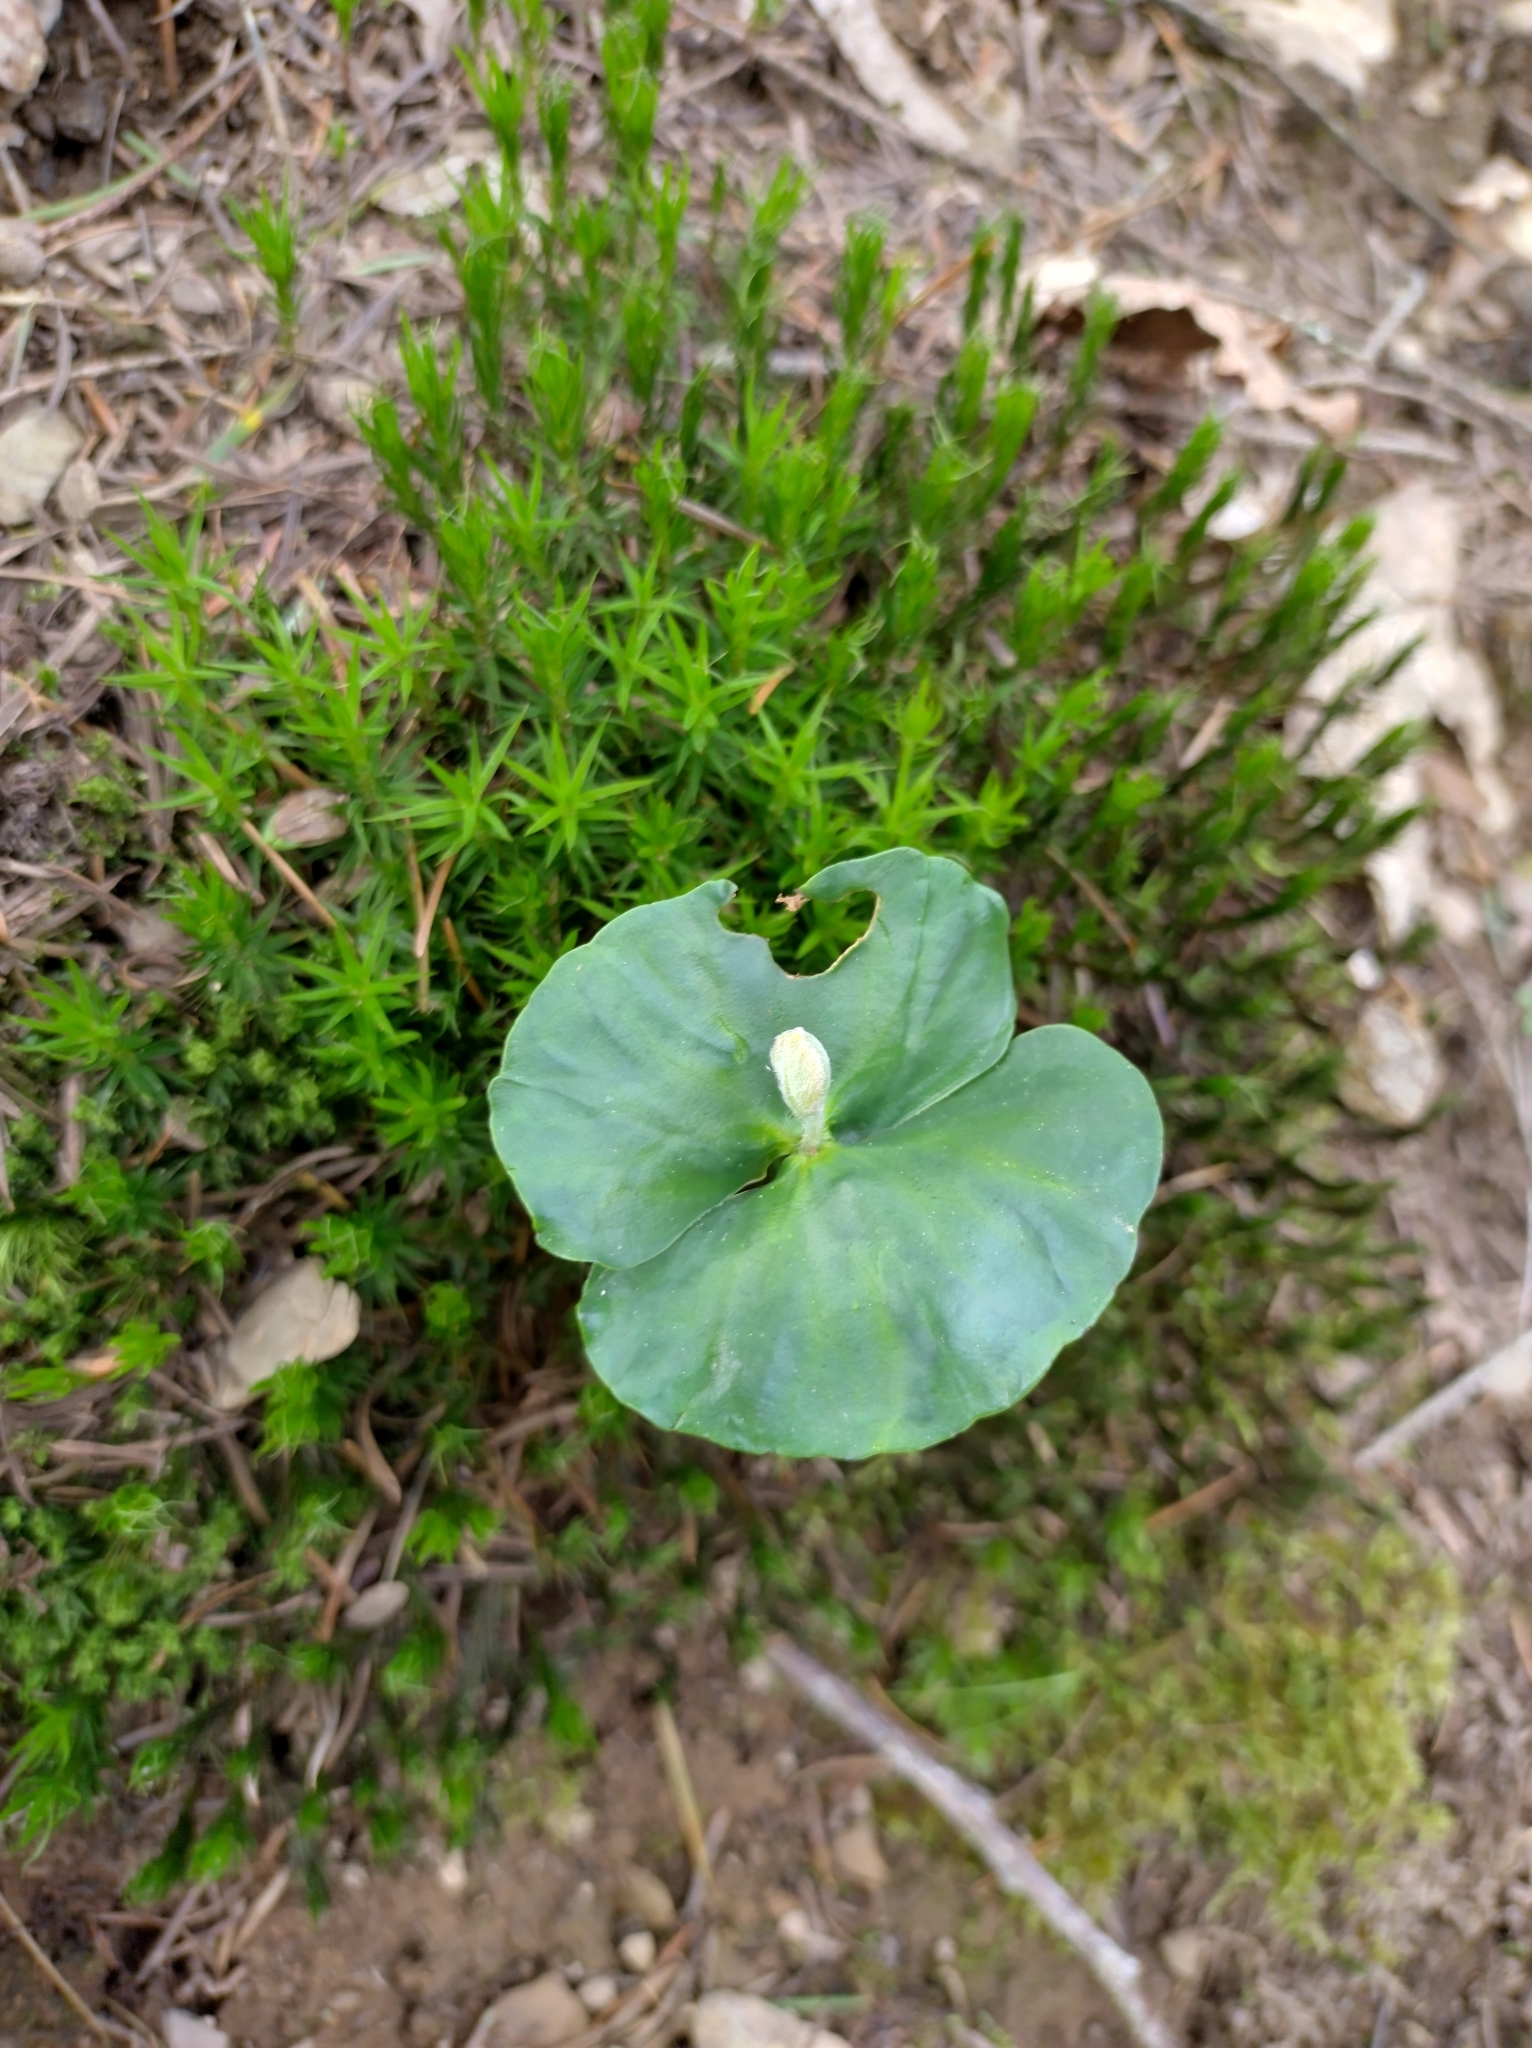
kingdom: Plantae
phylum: Tracheophyta
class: Magnoliopsida
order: Fagales
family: Fagaceae
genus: Fagus
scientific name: Fagus sylvatica
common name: Beech
